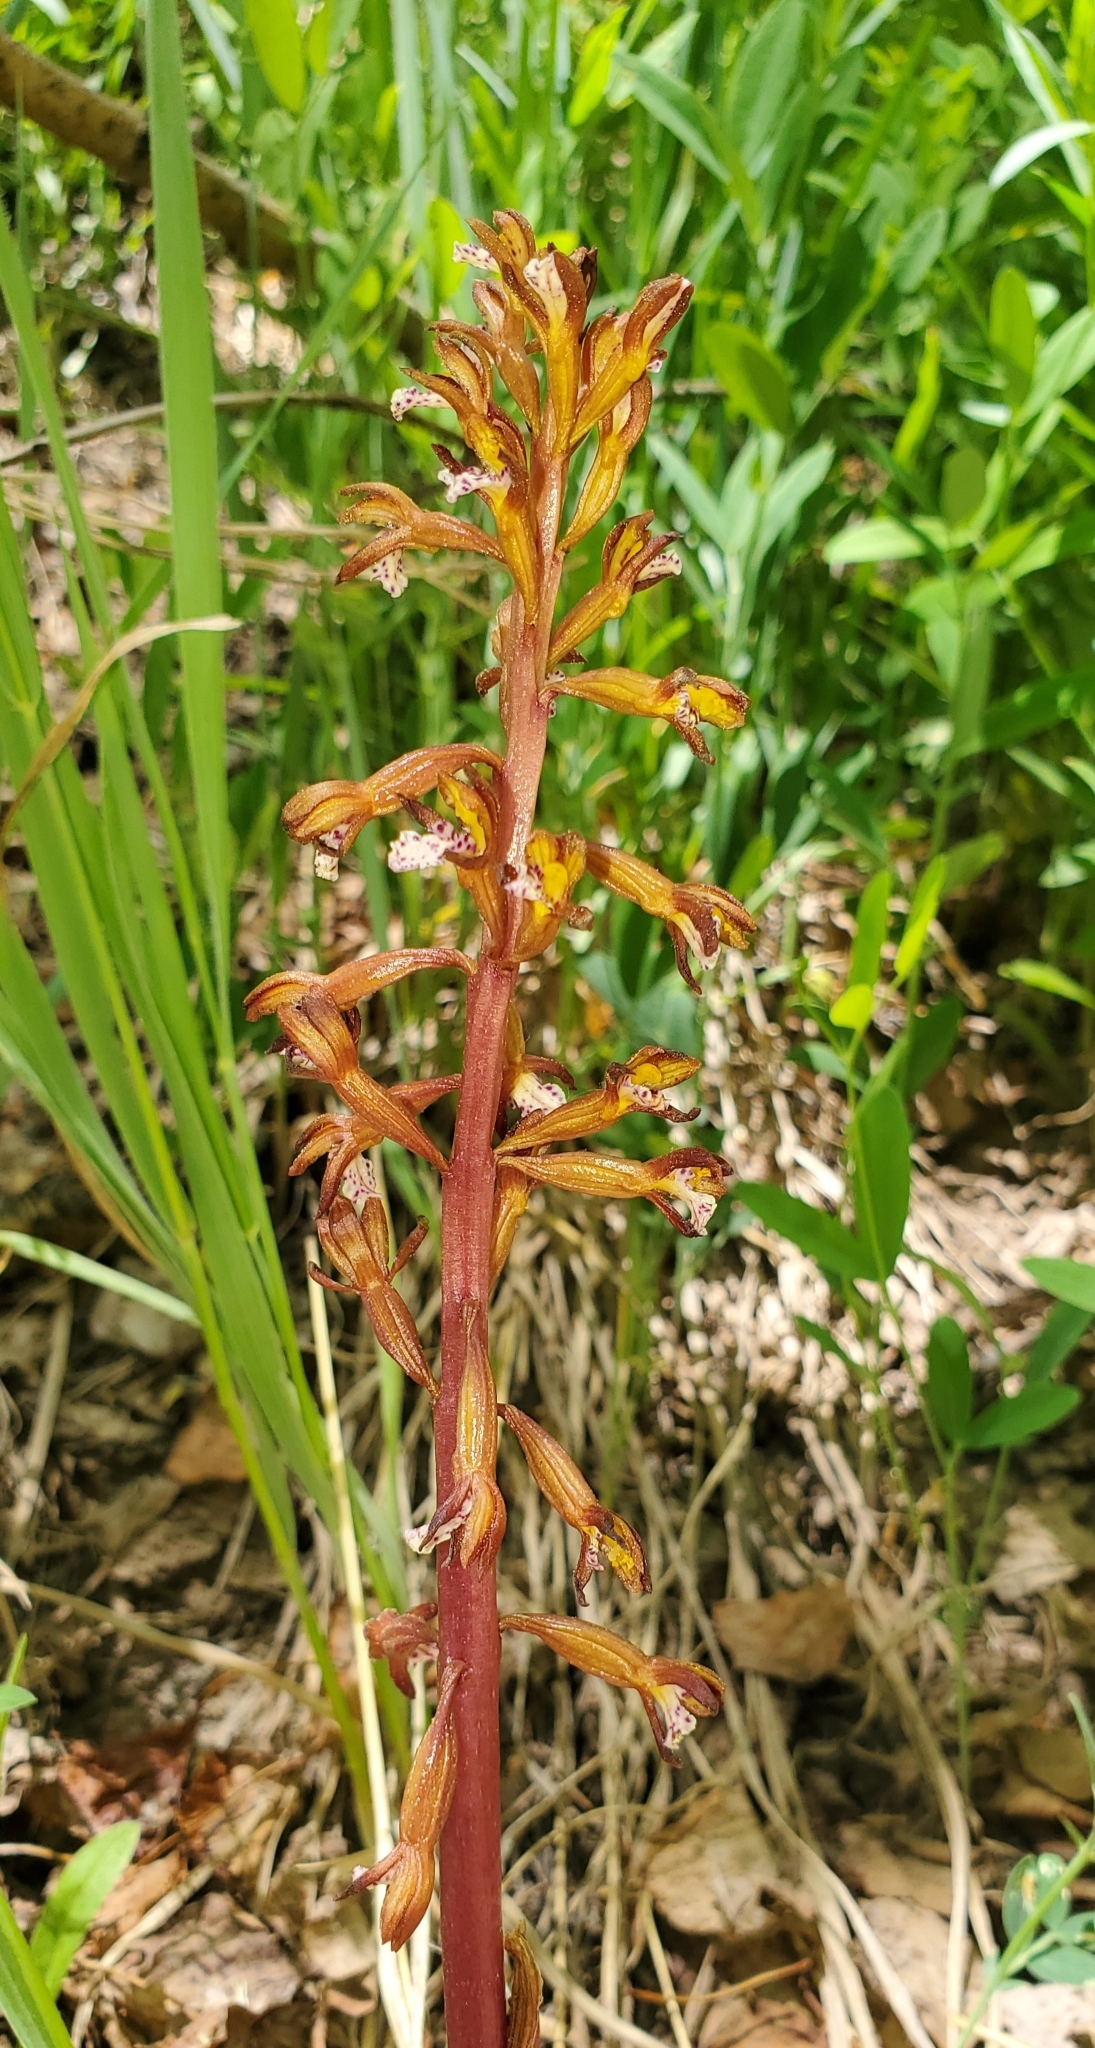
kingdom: Plantae
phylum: Tracheophyta
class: Liliopsida
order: Asparagales
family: Orchidaceae
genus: Corallorhiza
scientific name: Corallorhiza maculata
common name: Spotted coralroot
